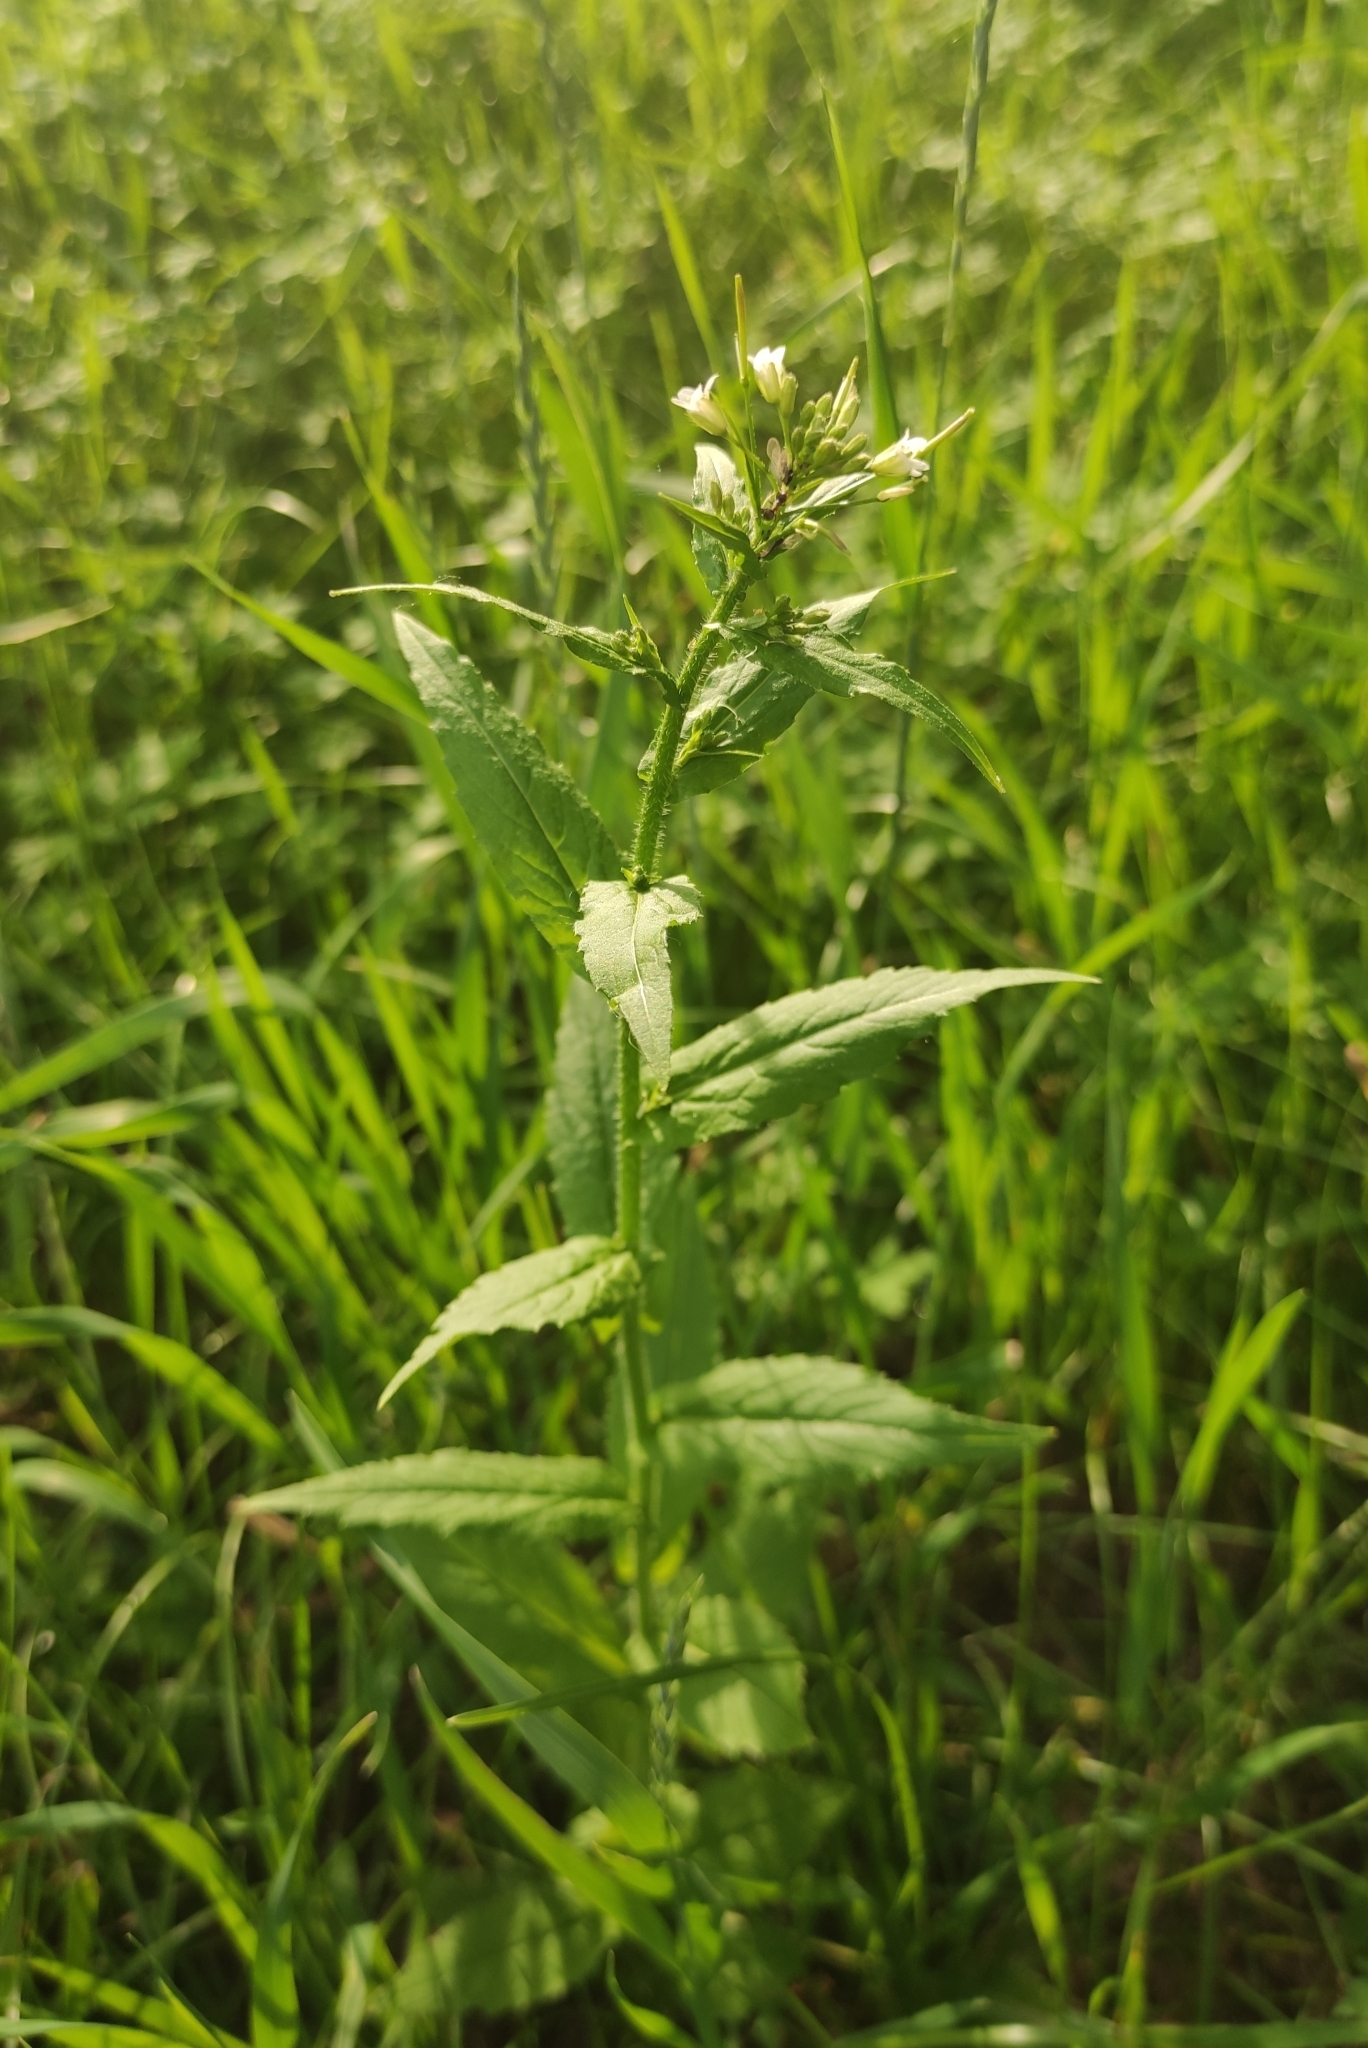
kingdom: Plantae
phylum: Tracheophyta
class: Magnoliopsida
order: Brassicales
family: Brassicaceae
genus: Catolobus
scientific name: Catolobus pendulus
